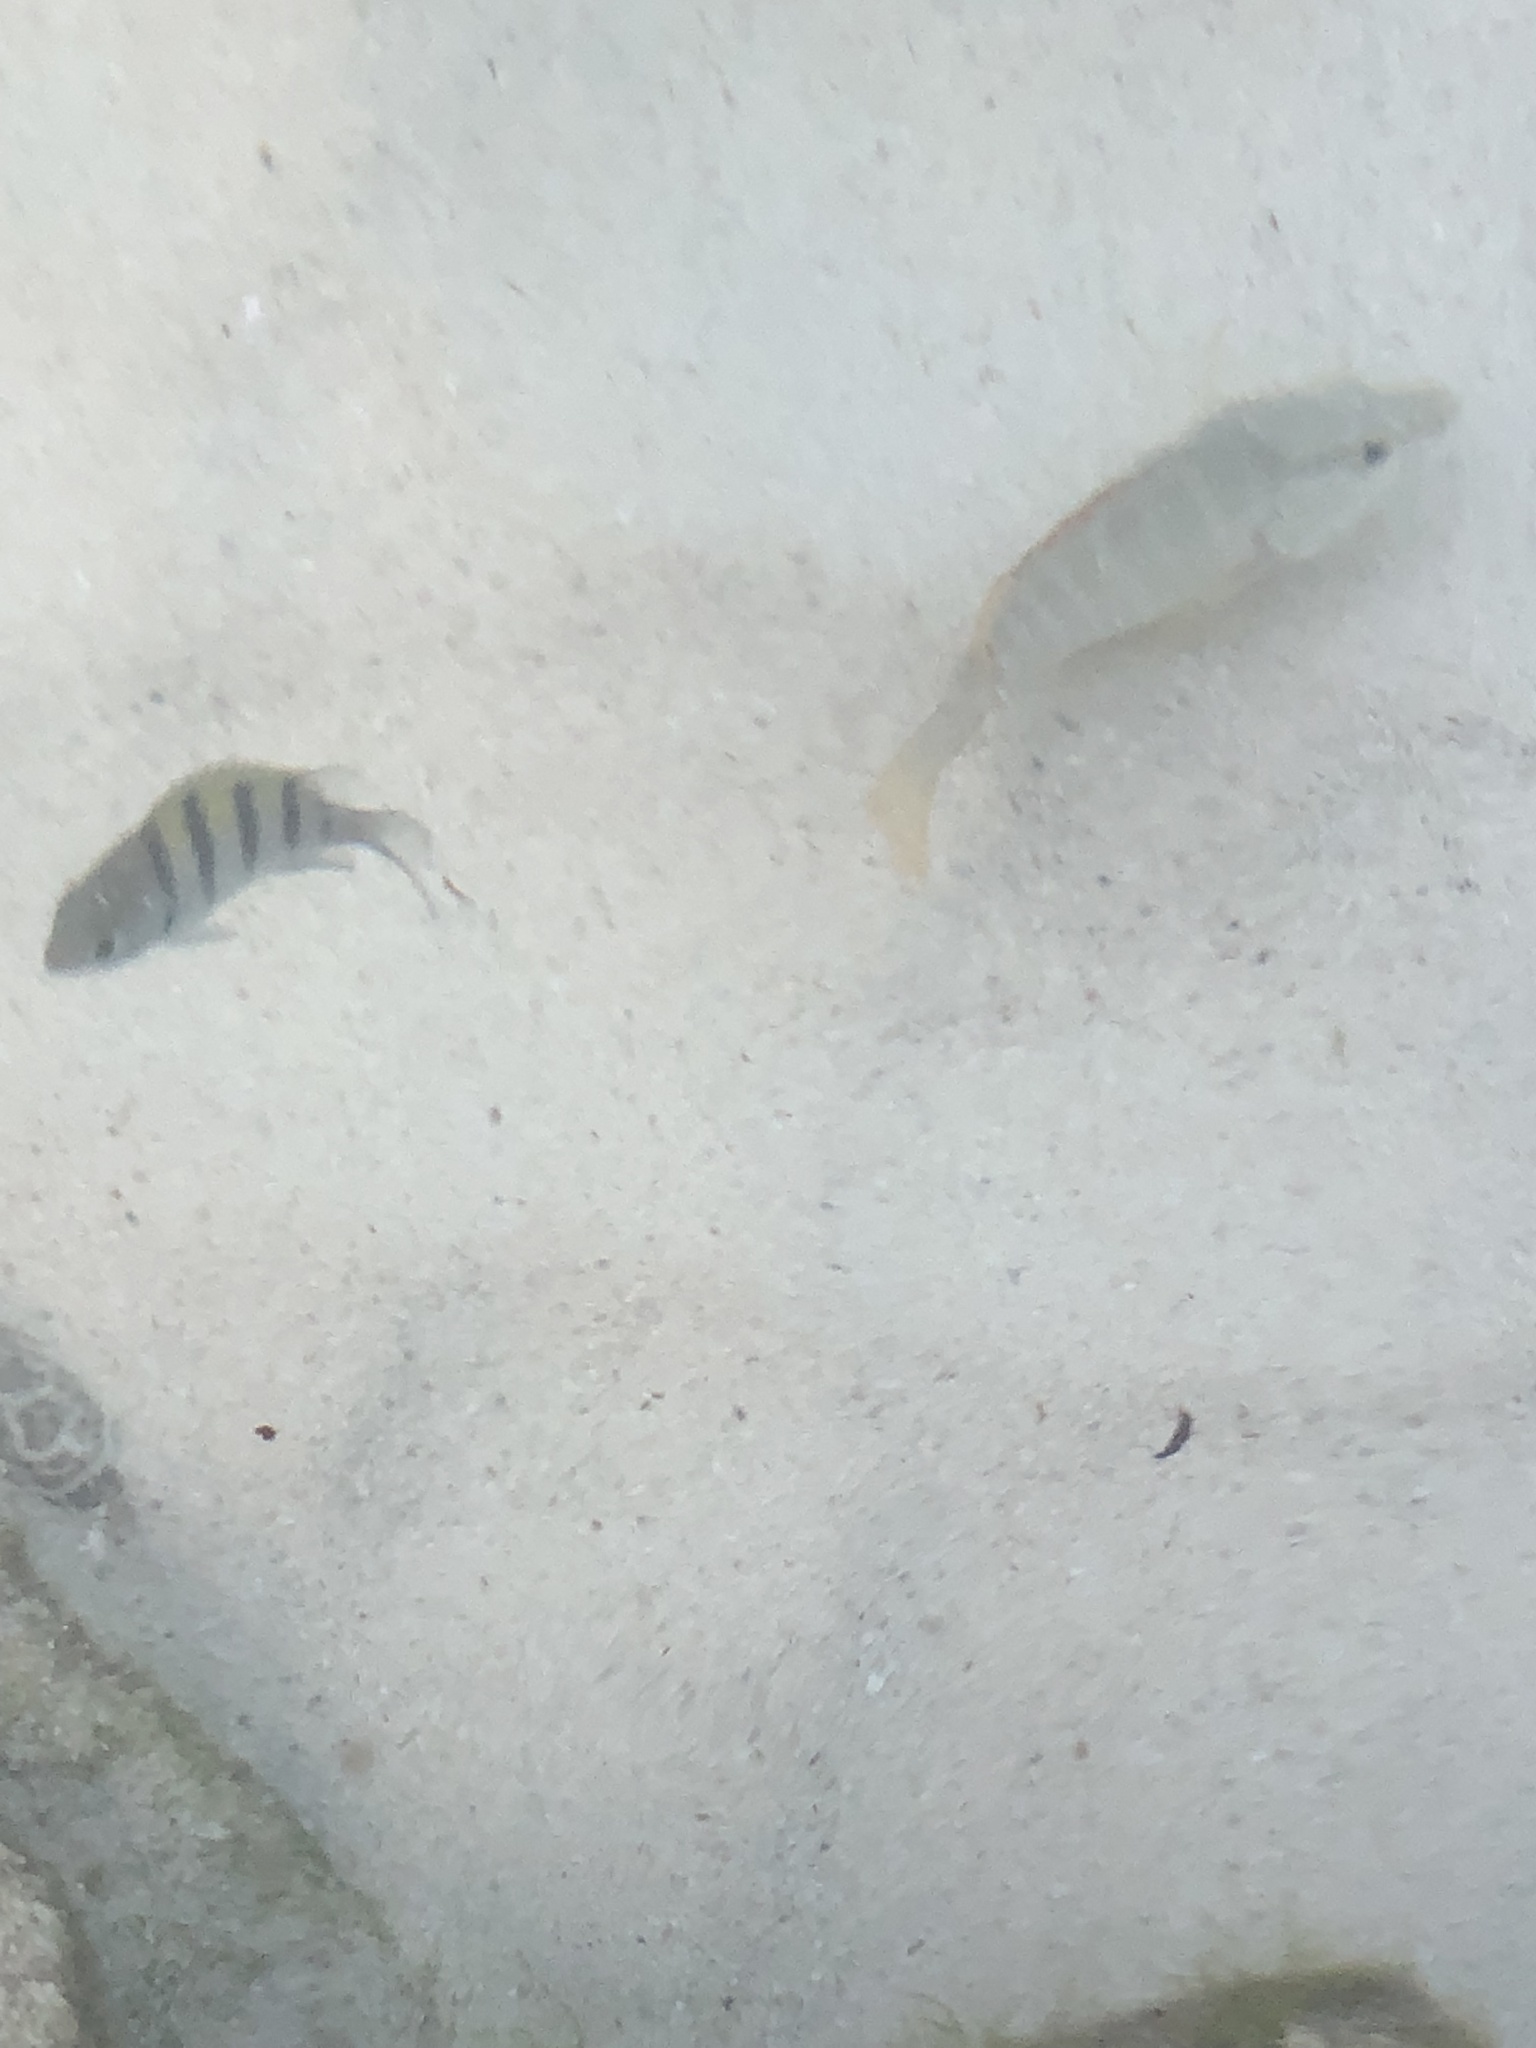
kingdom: Animalia
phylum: Chordata
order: Perciformes
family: Pomacentridae
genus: Abudefduf
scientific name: Abudefduf saxatilis
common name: Sergeant major
